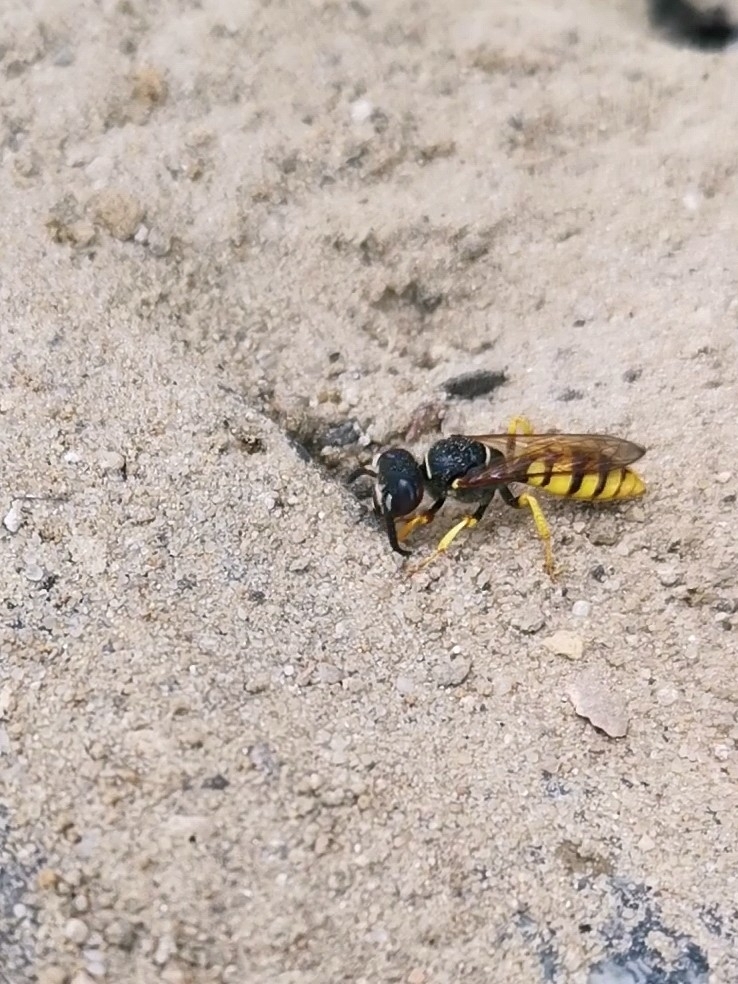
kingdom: Animalia
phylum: Arthropoda
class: Insecta
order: Hymenoptera
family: Crabronidae
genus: Philanthus
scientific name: Philanthus triangulum
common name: Bee wolf
